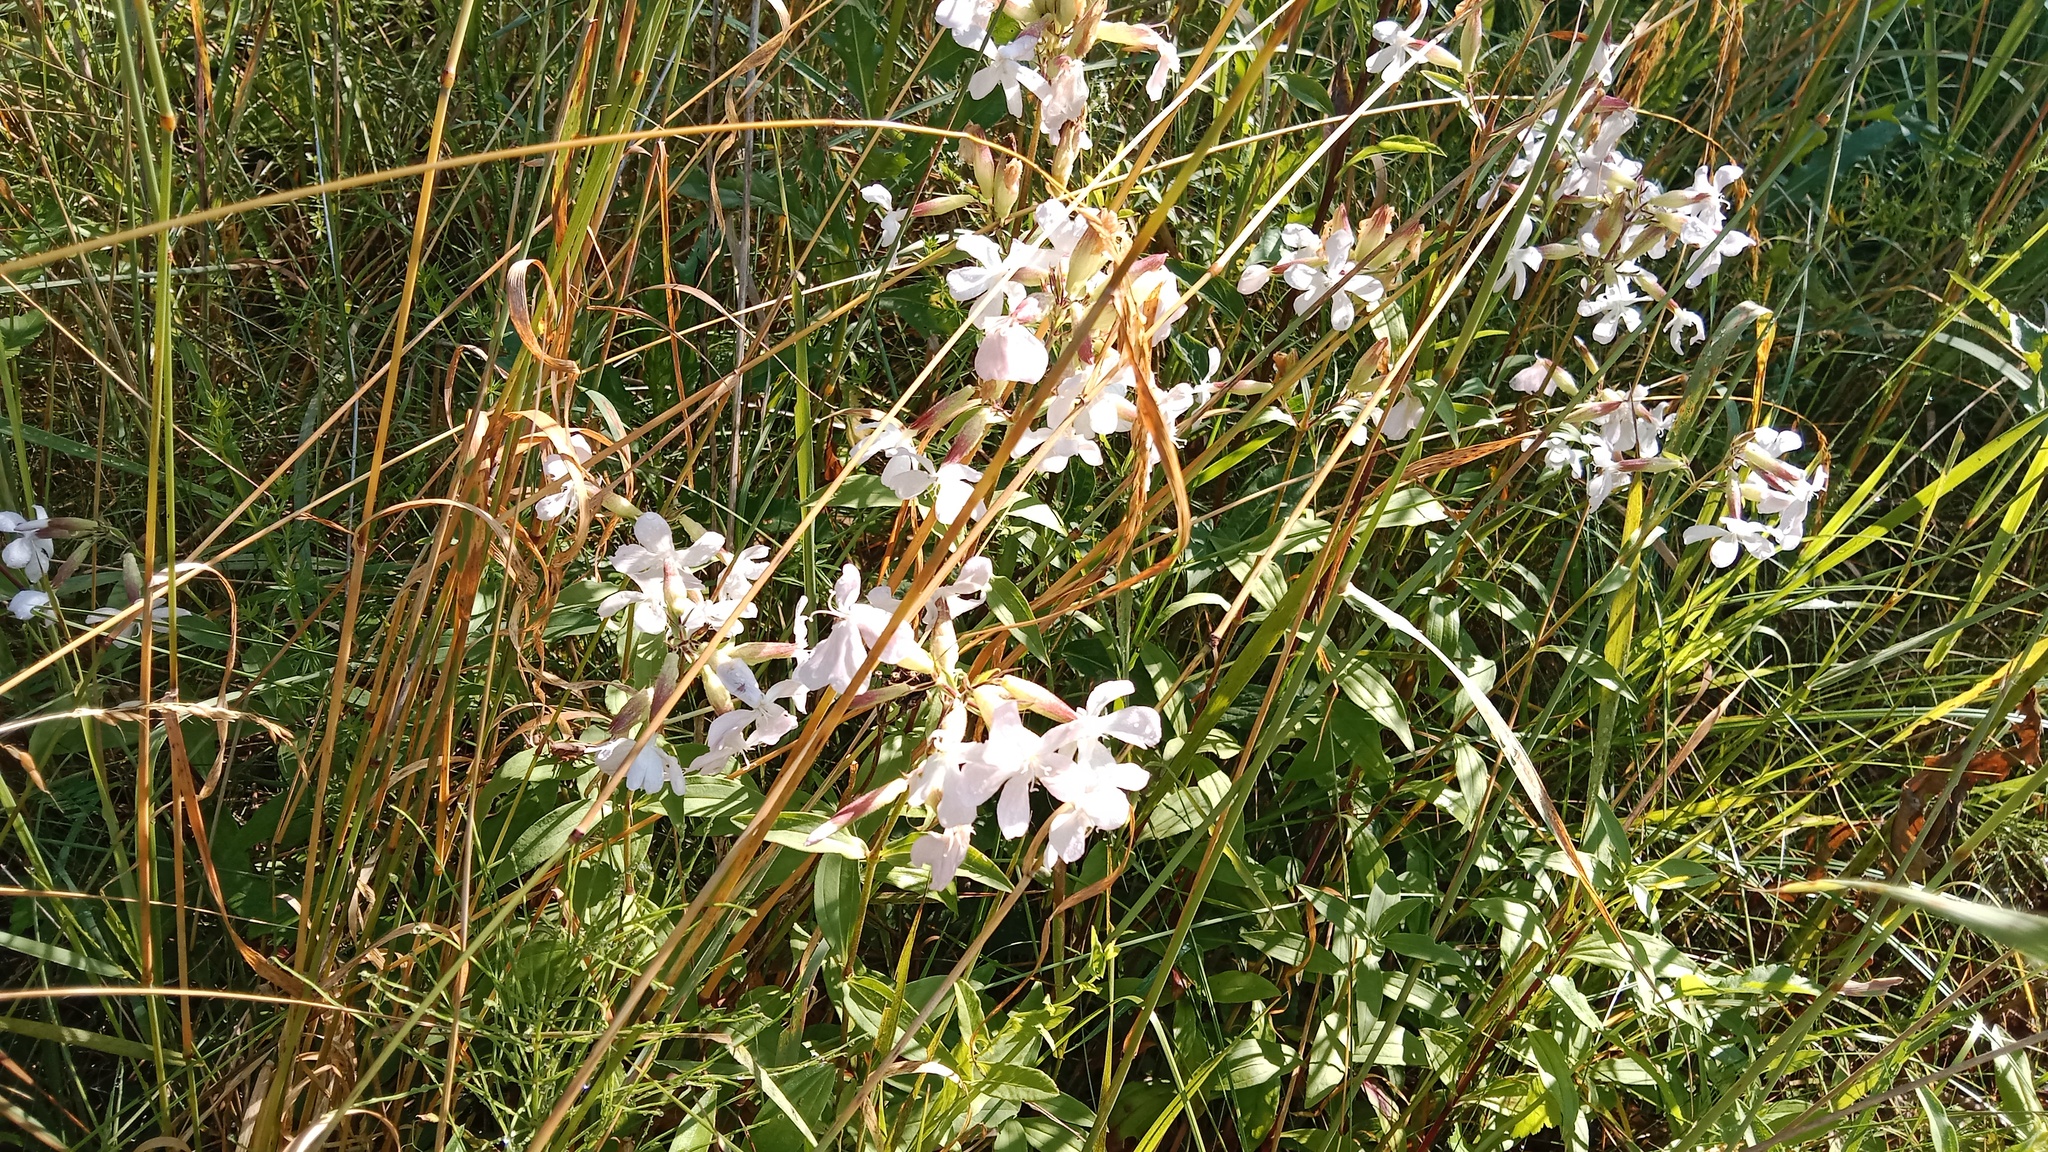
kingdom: Plantae
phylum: Tracheophyta
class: Magnoliopsida
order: Caryophyllales
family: Caryophyllaceae
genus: Saponaria
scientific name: Saponaria officinalis
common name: Soapwort
